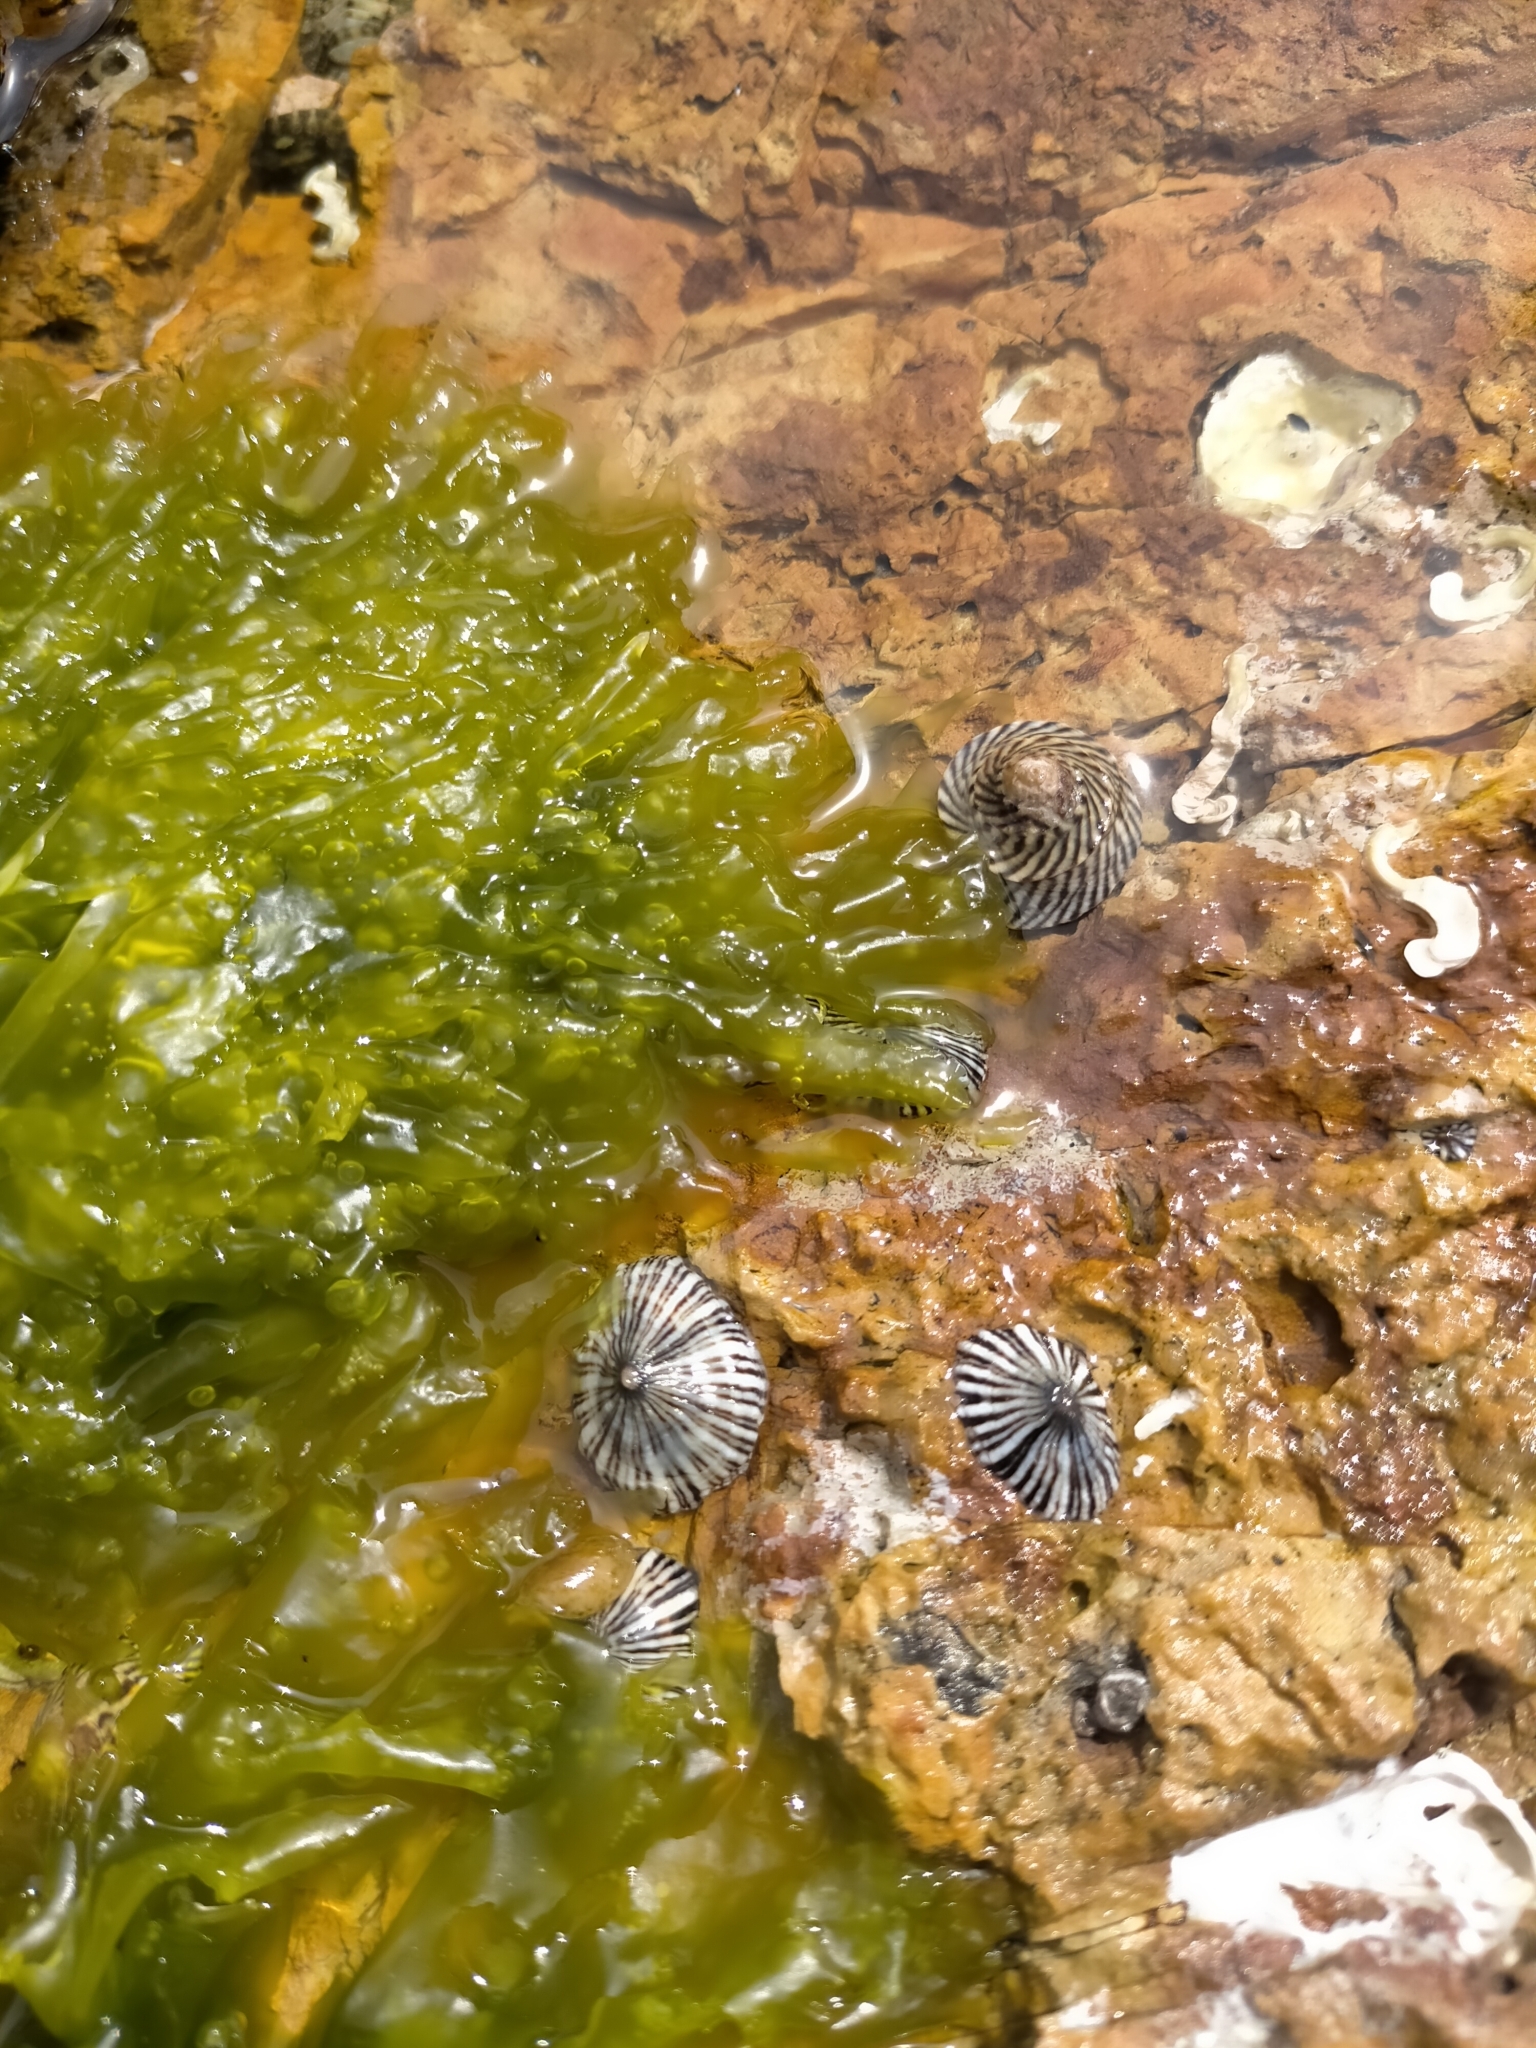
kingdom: Animalia
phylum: Mollusca
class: Gastropoda
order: Siphonariida
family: Siphonariidae
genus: Siphonaria
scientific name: Siphonaria funiculata
